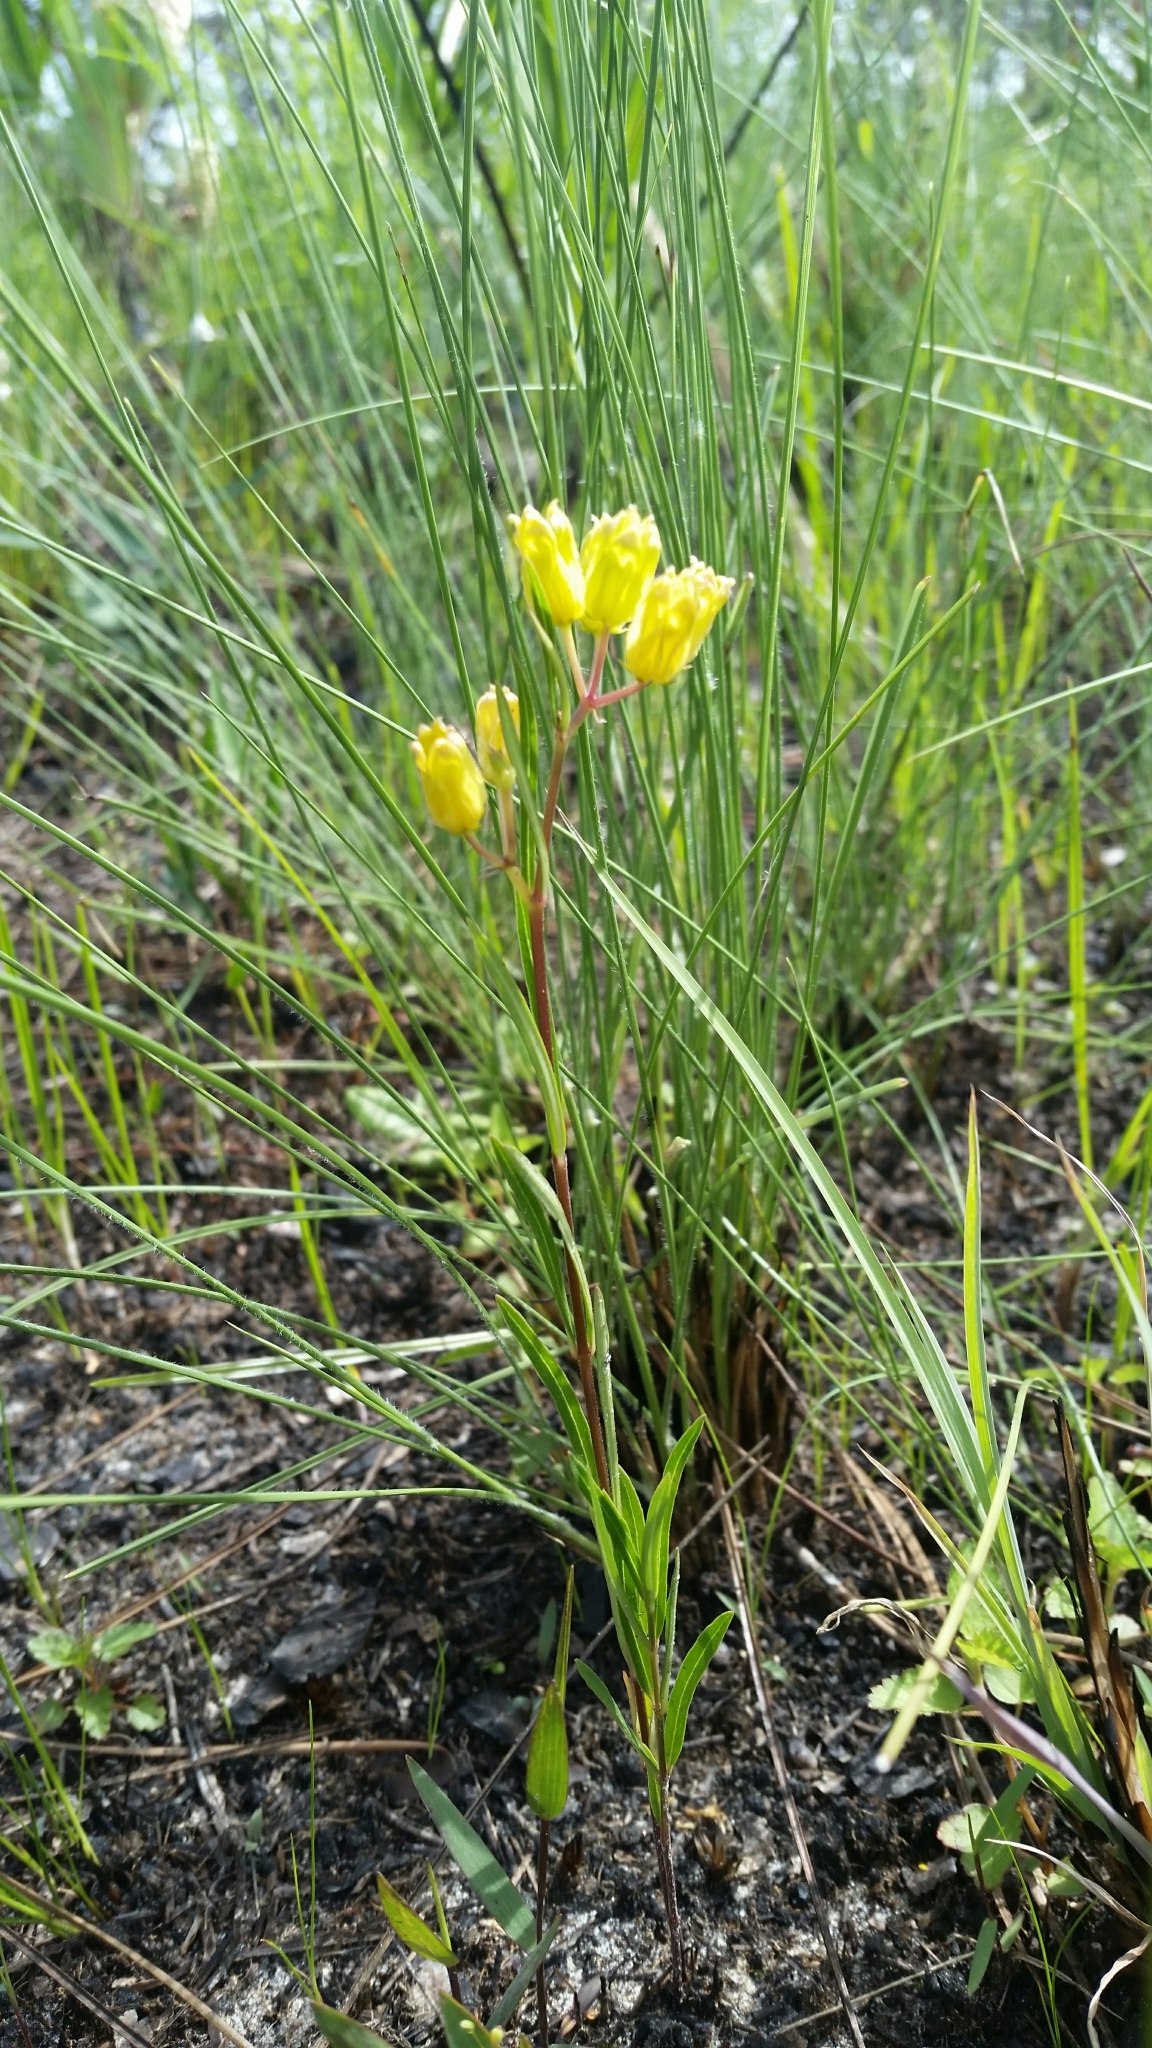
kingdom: Plantae
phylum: Tracheophyta
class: Magnoliopsida
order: Gentianales
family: Apocynaceae
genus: Asclepias
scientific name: Asclepias pedicellata
